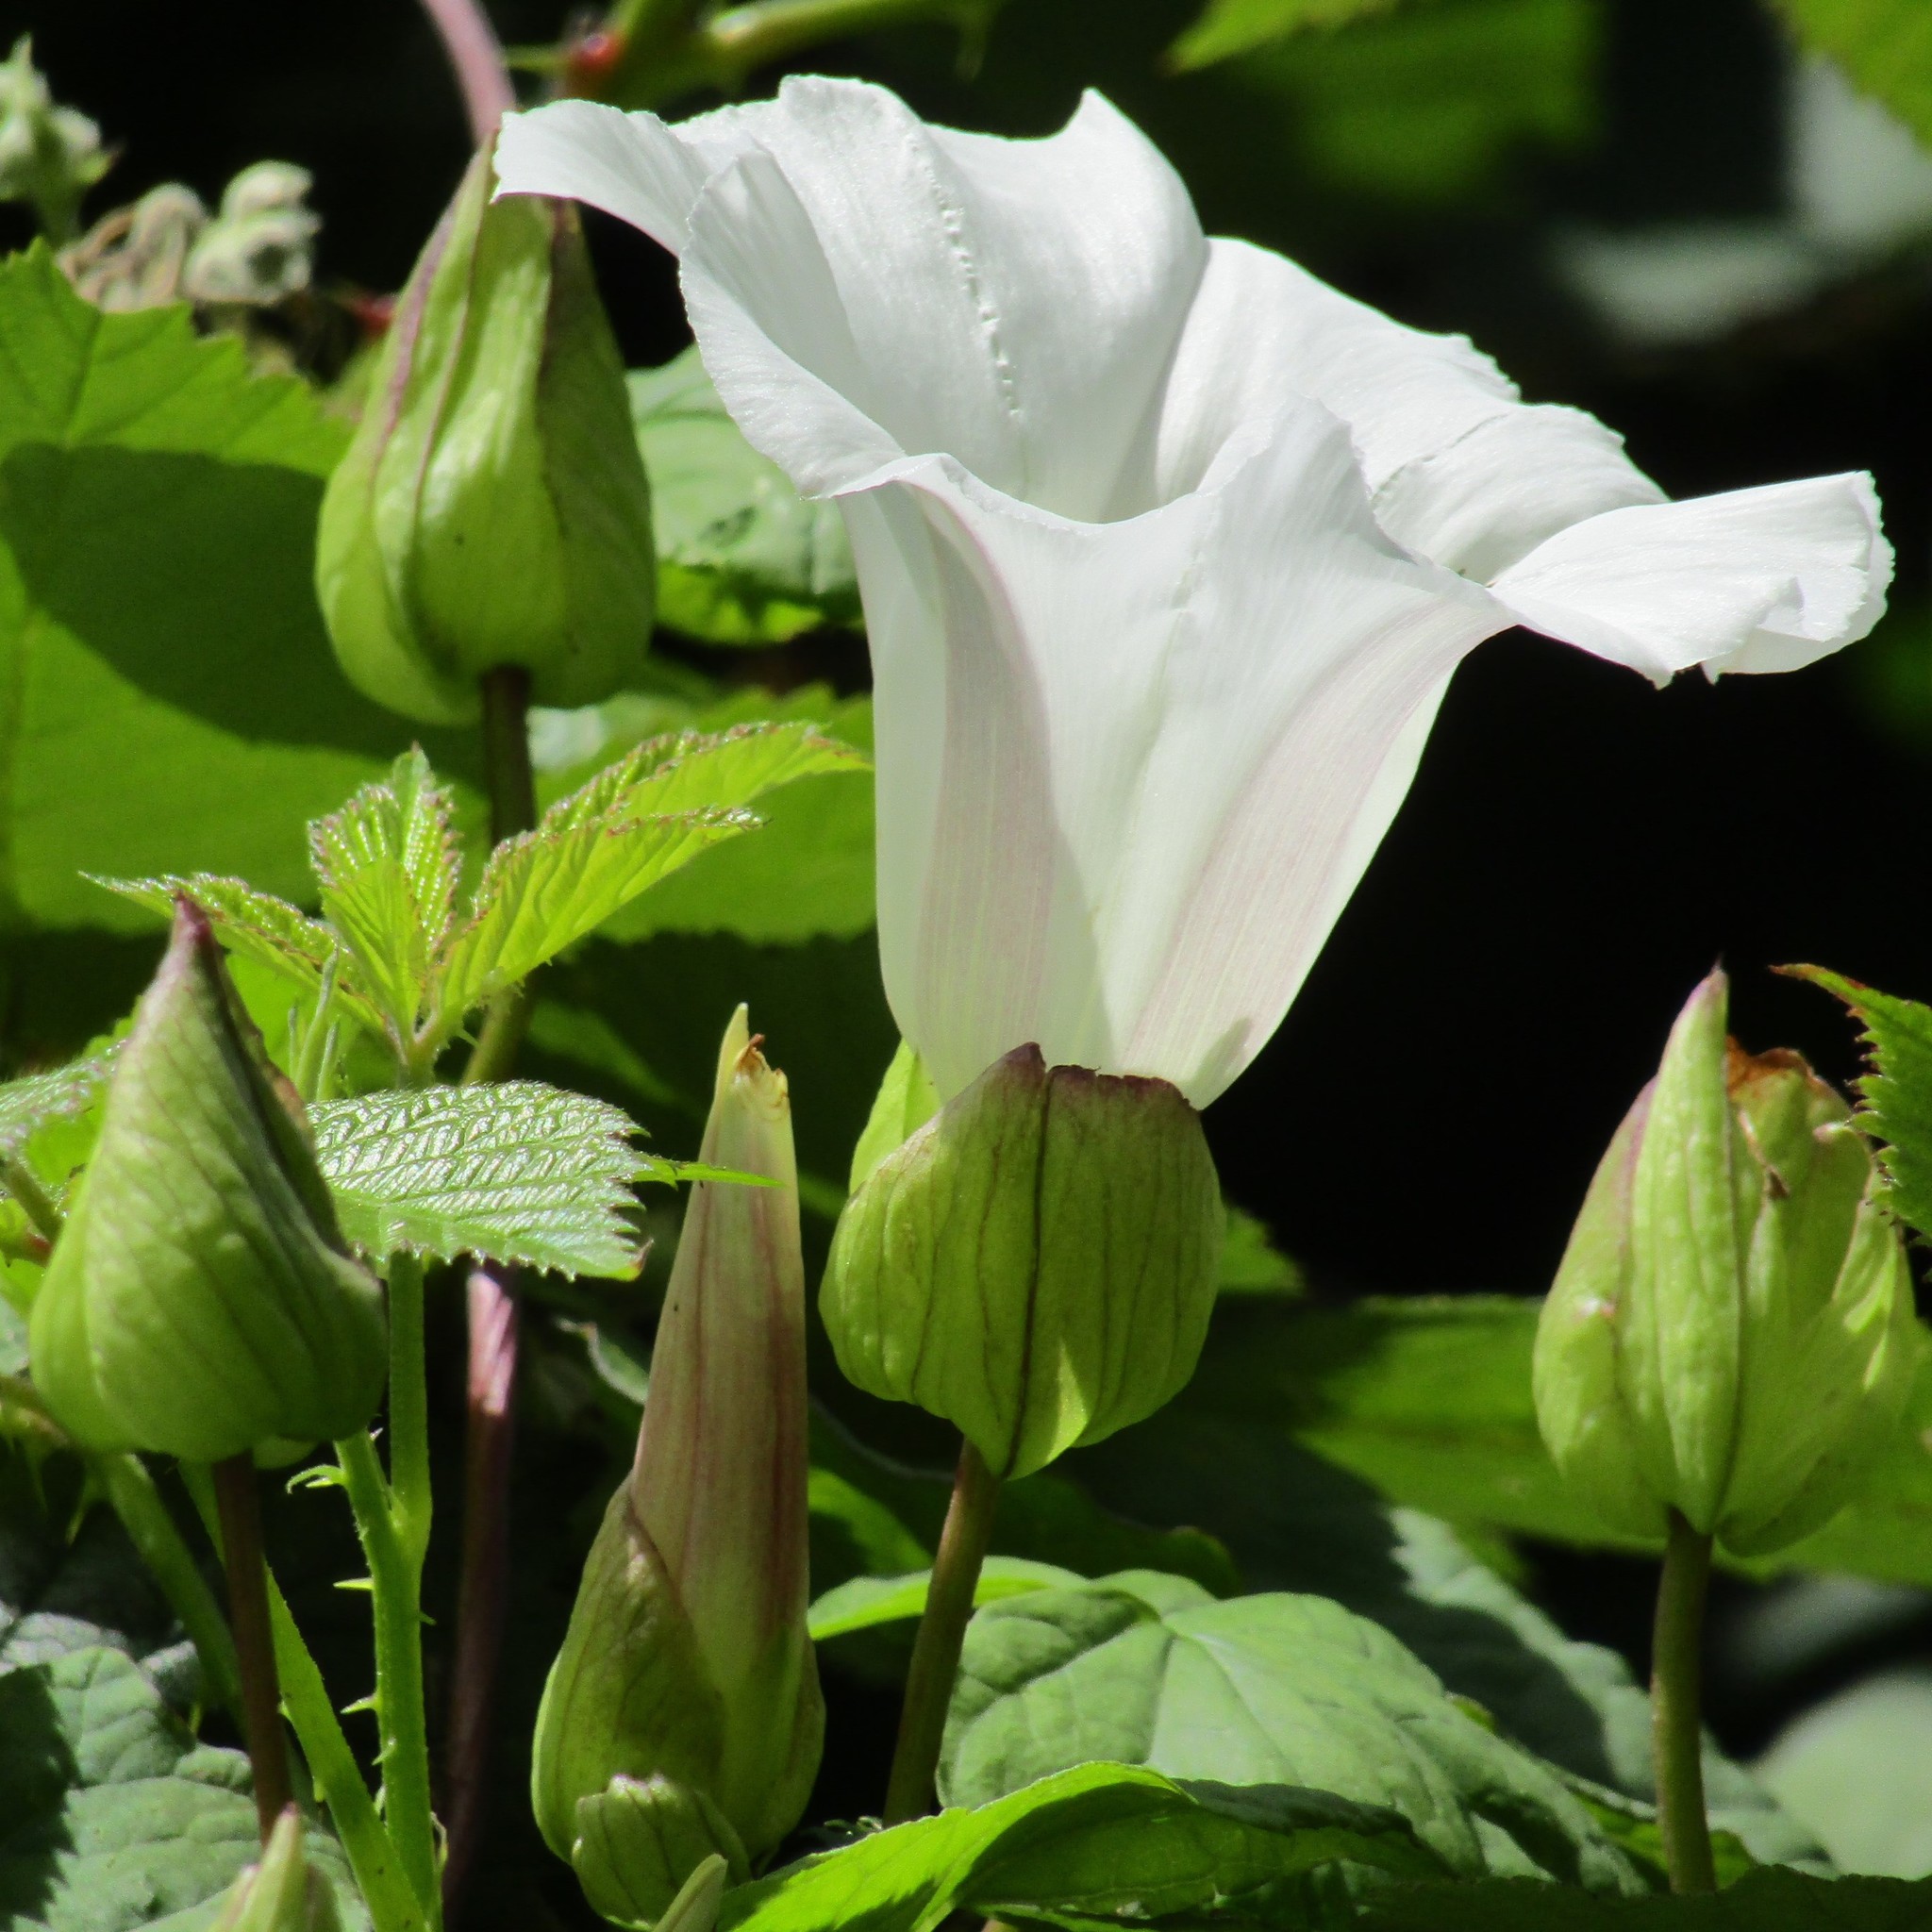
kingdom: Plantae
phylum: Tracheophyta
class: Magnoliopsida
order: Solanales
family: Convolvulaceae
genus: Calystegia
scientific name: Calystegia silvatica
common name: Large bindweed
